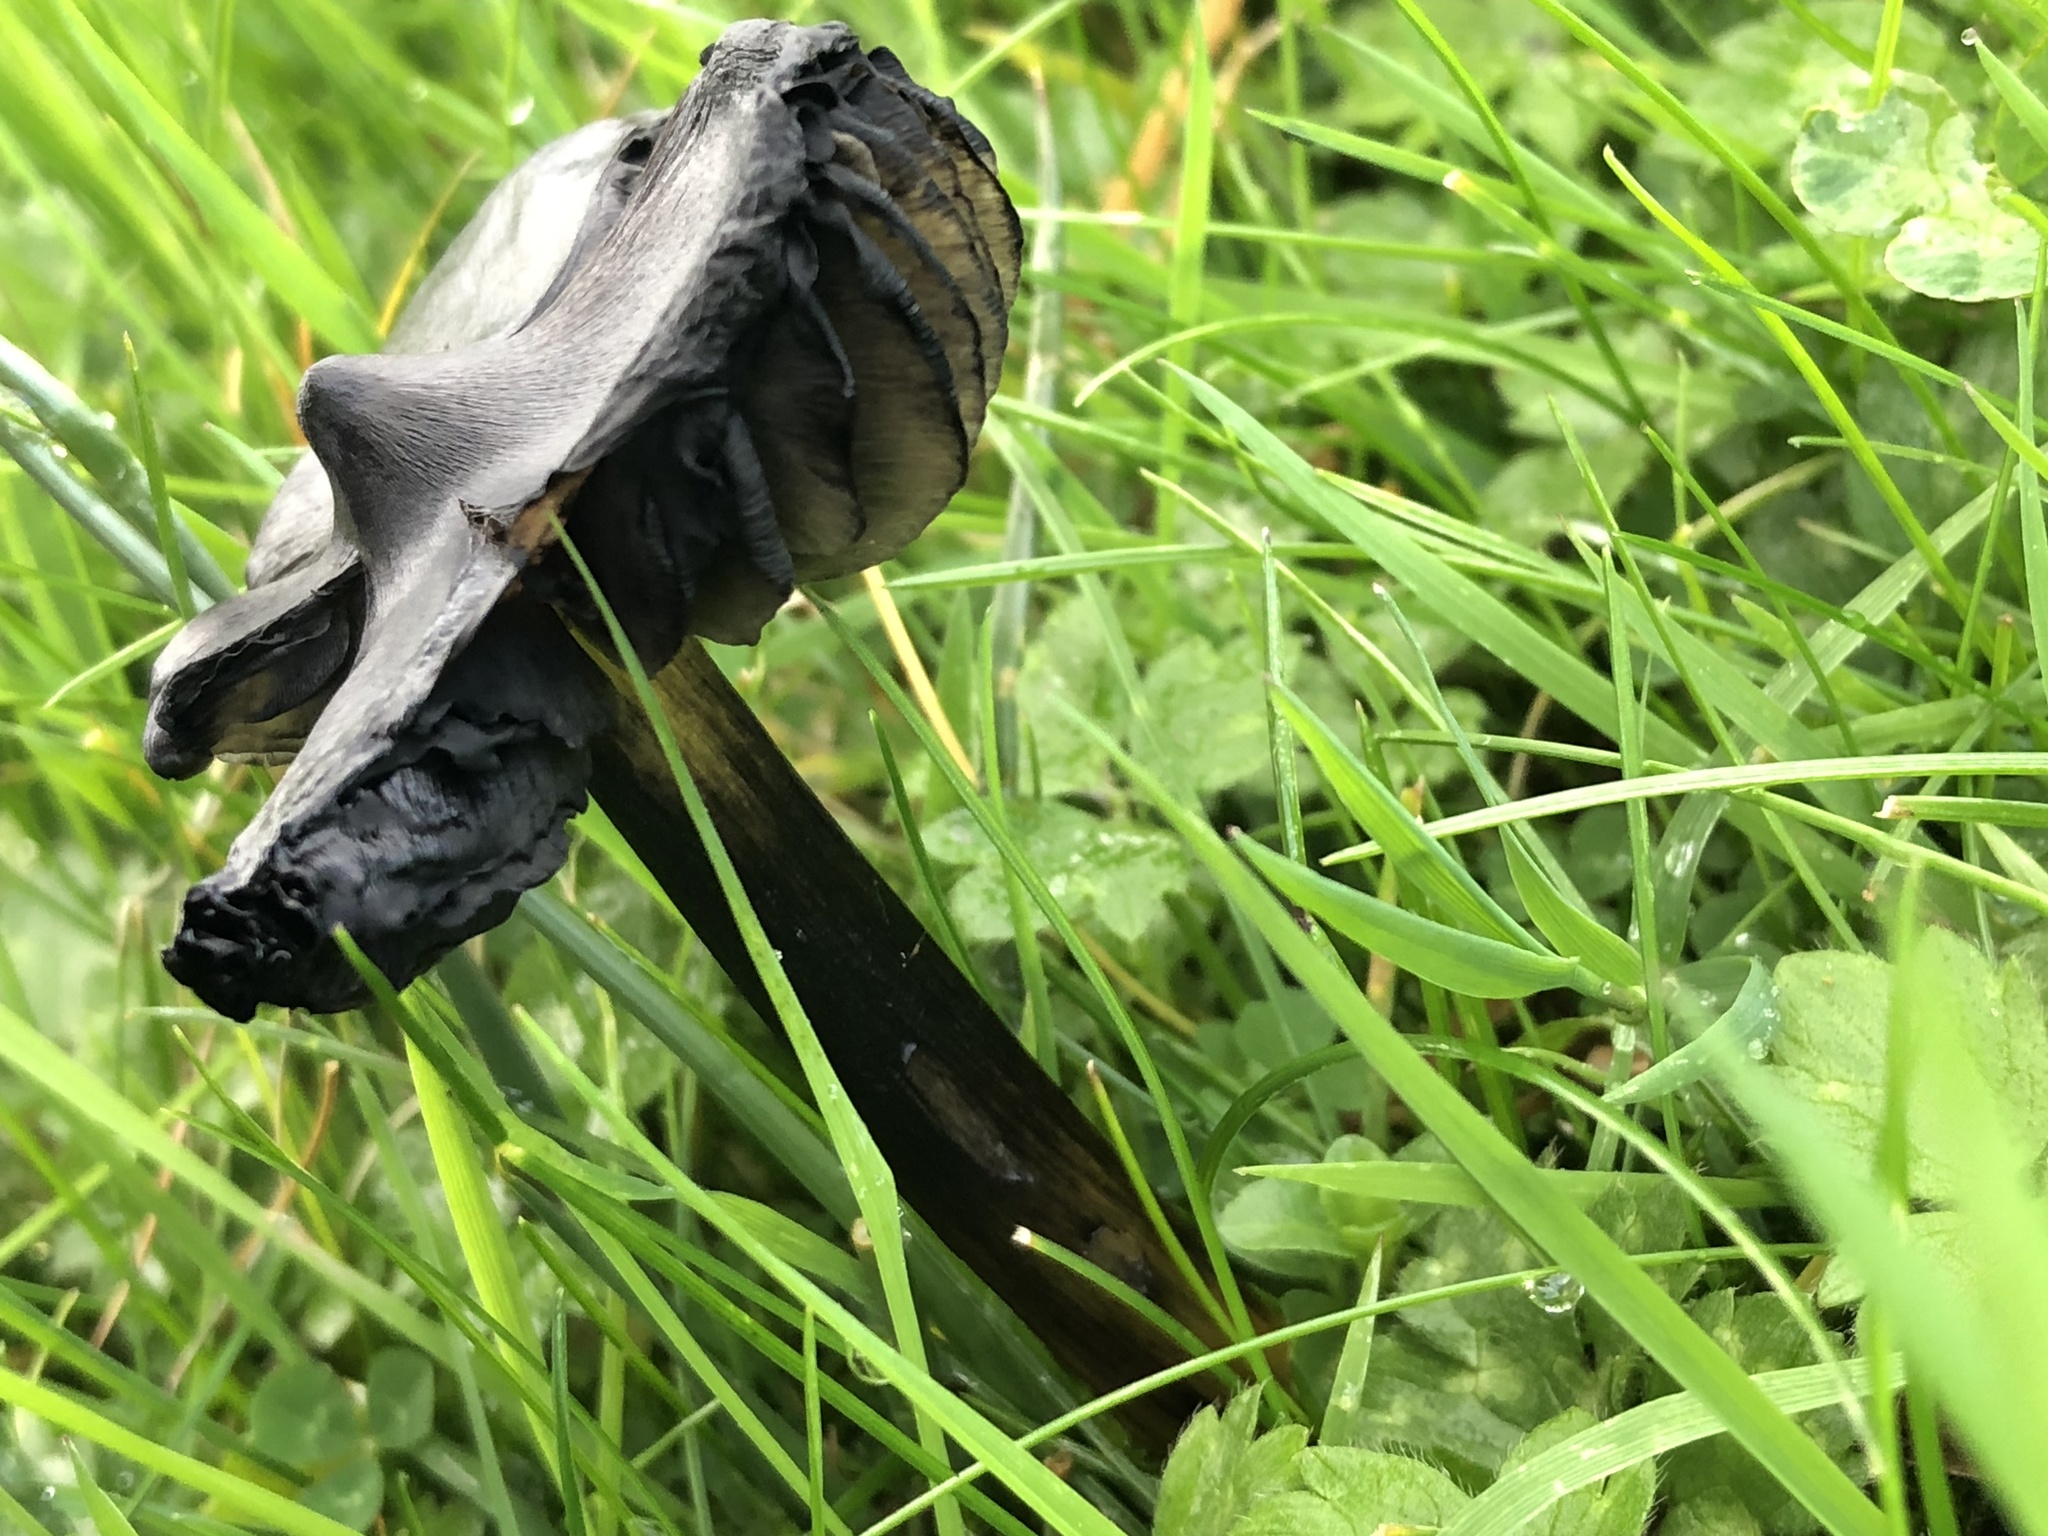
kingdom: Fungi
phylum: Basidiomycota
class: Agaricomycetes
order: Agaricales
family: Hygrophoraceae
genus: Hygrocybe
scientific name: Hygrocybe conica
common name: Blackening wax-cap
